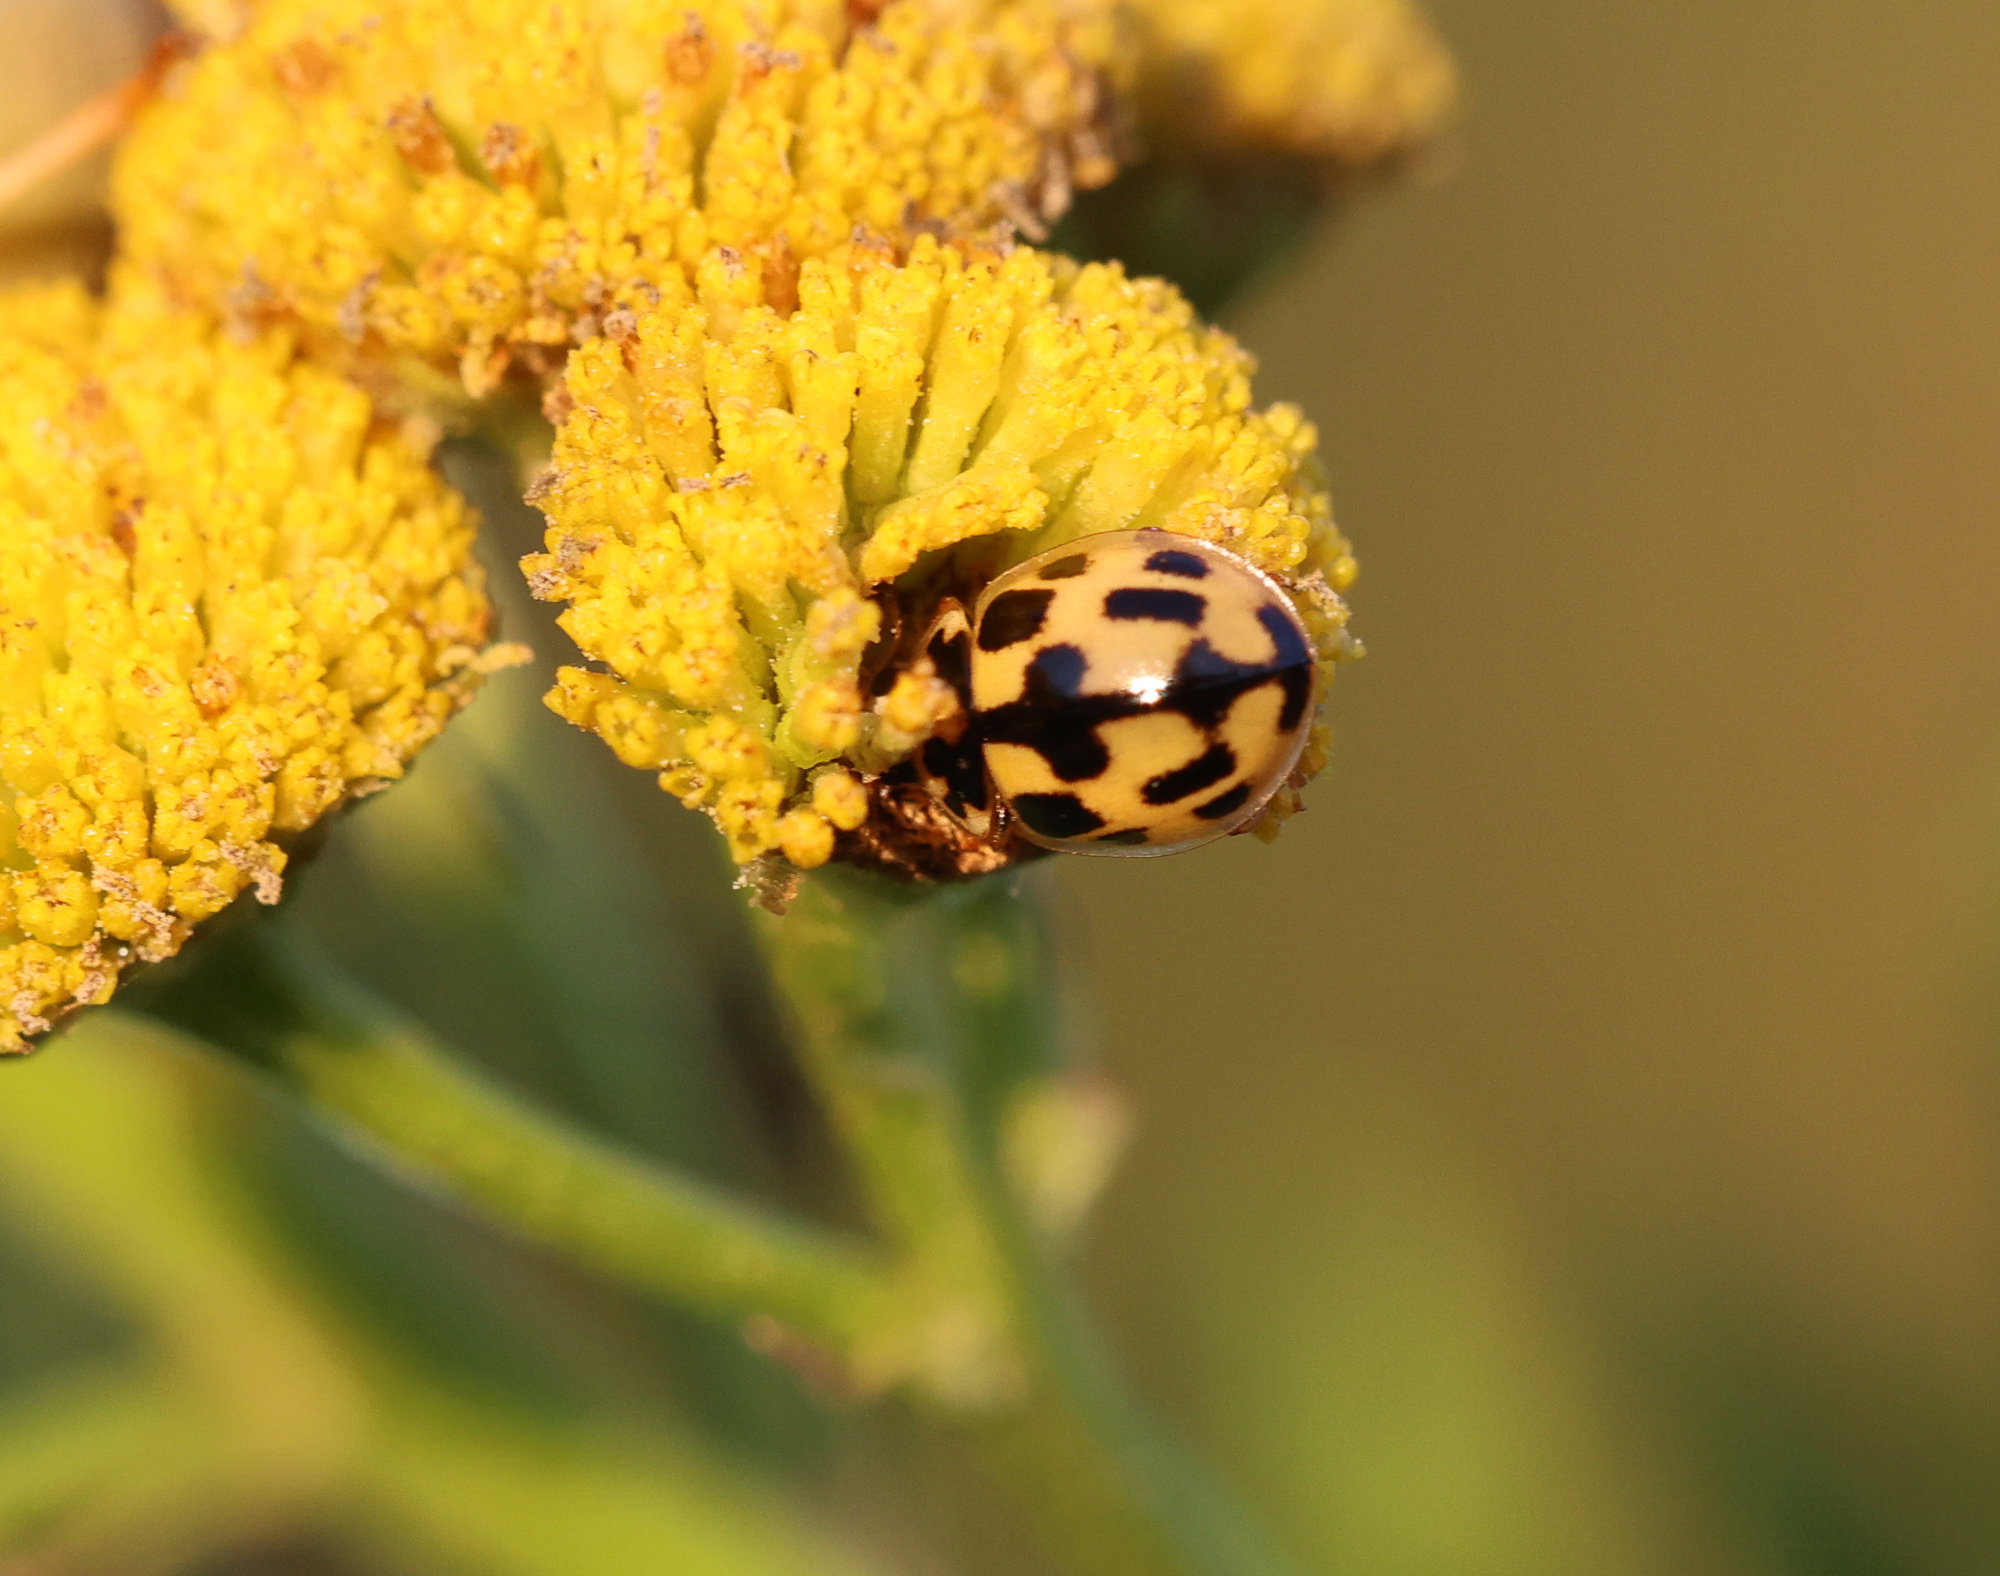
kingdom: Animalia
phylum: Arthropoda
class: Insecta
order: Coleoptera
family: Coccinellidae
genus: Propylaea
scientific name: Propylaea quatuordecimpunctata
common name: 14-spotted ladybird beetle
